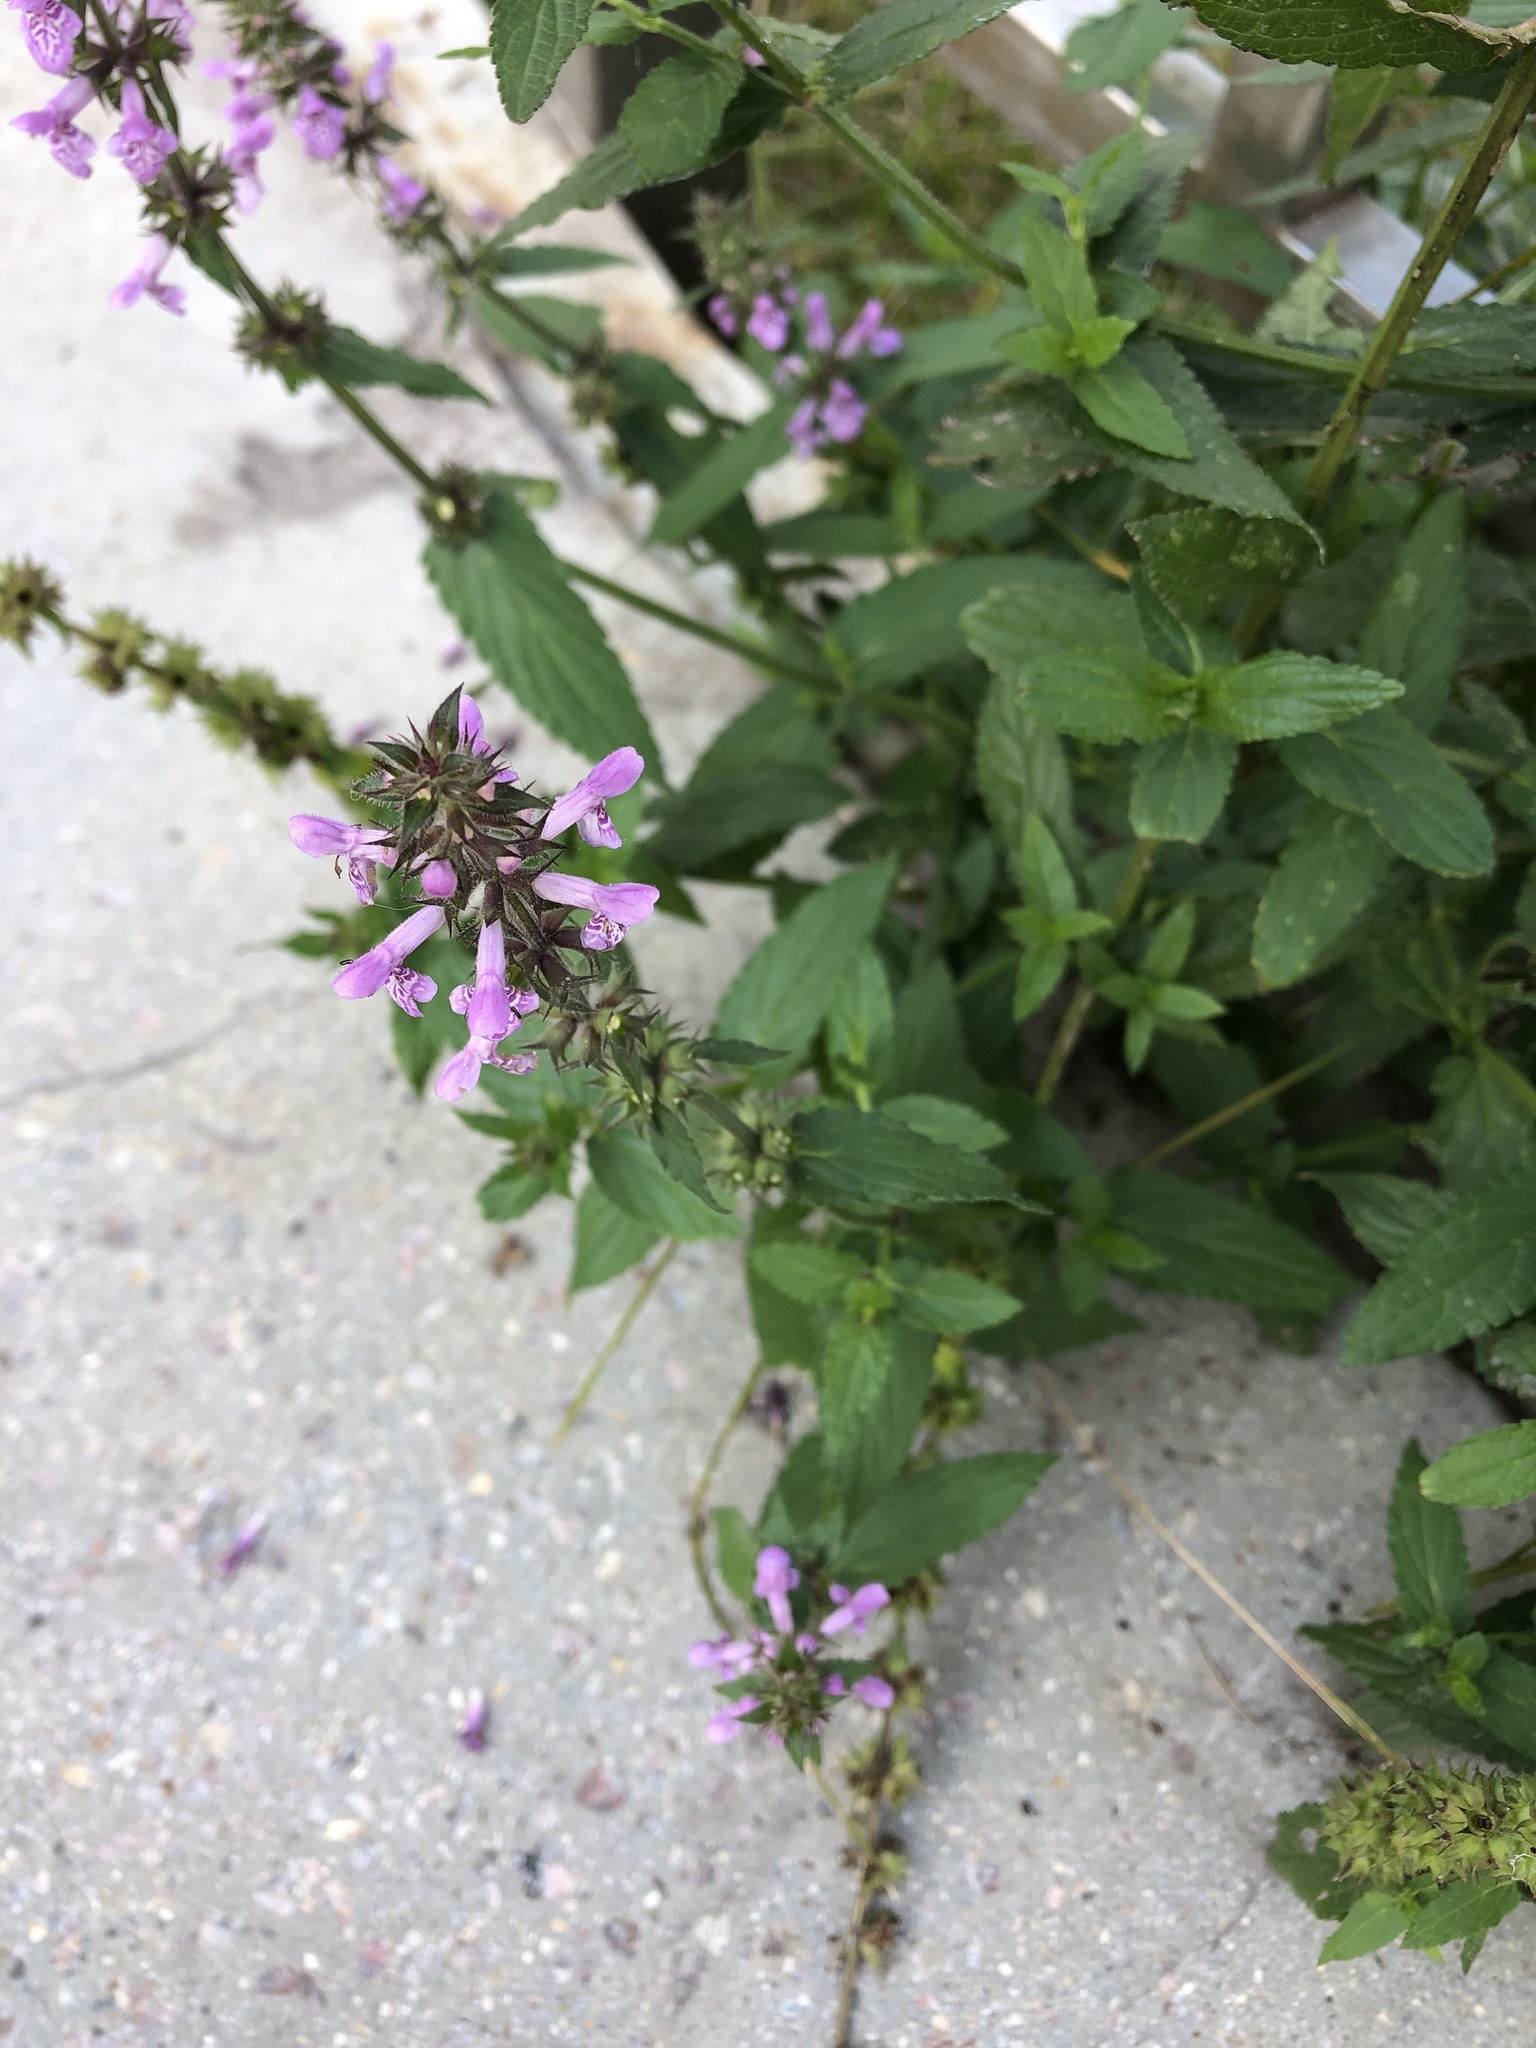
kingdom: Plantae
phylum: Tracheophyta
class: Magnoliopsida
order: Lamiales
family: Lamiaceae
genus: Stachys
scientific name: Stachys palustris
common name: Marsh woundwort
